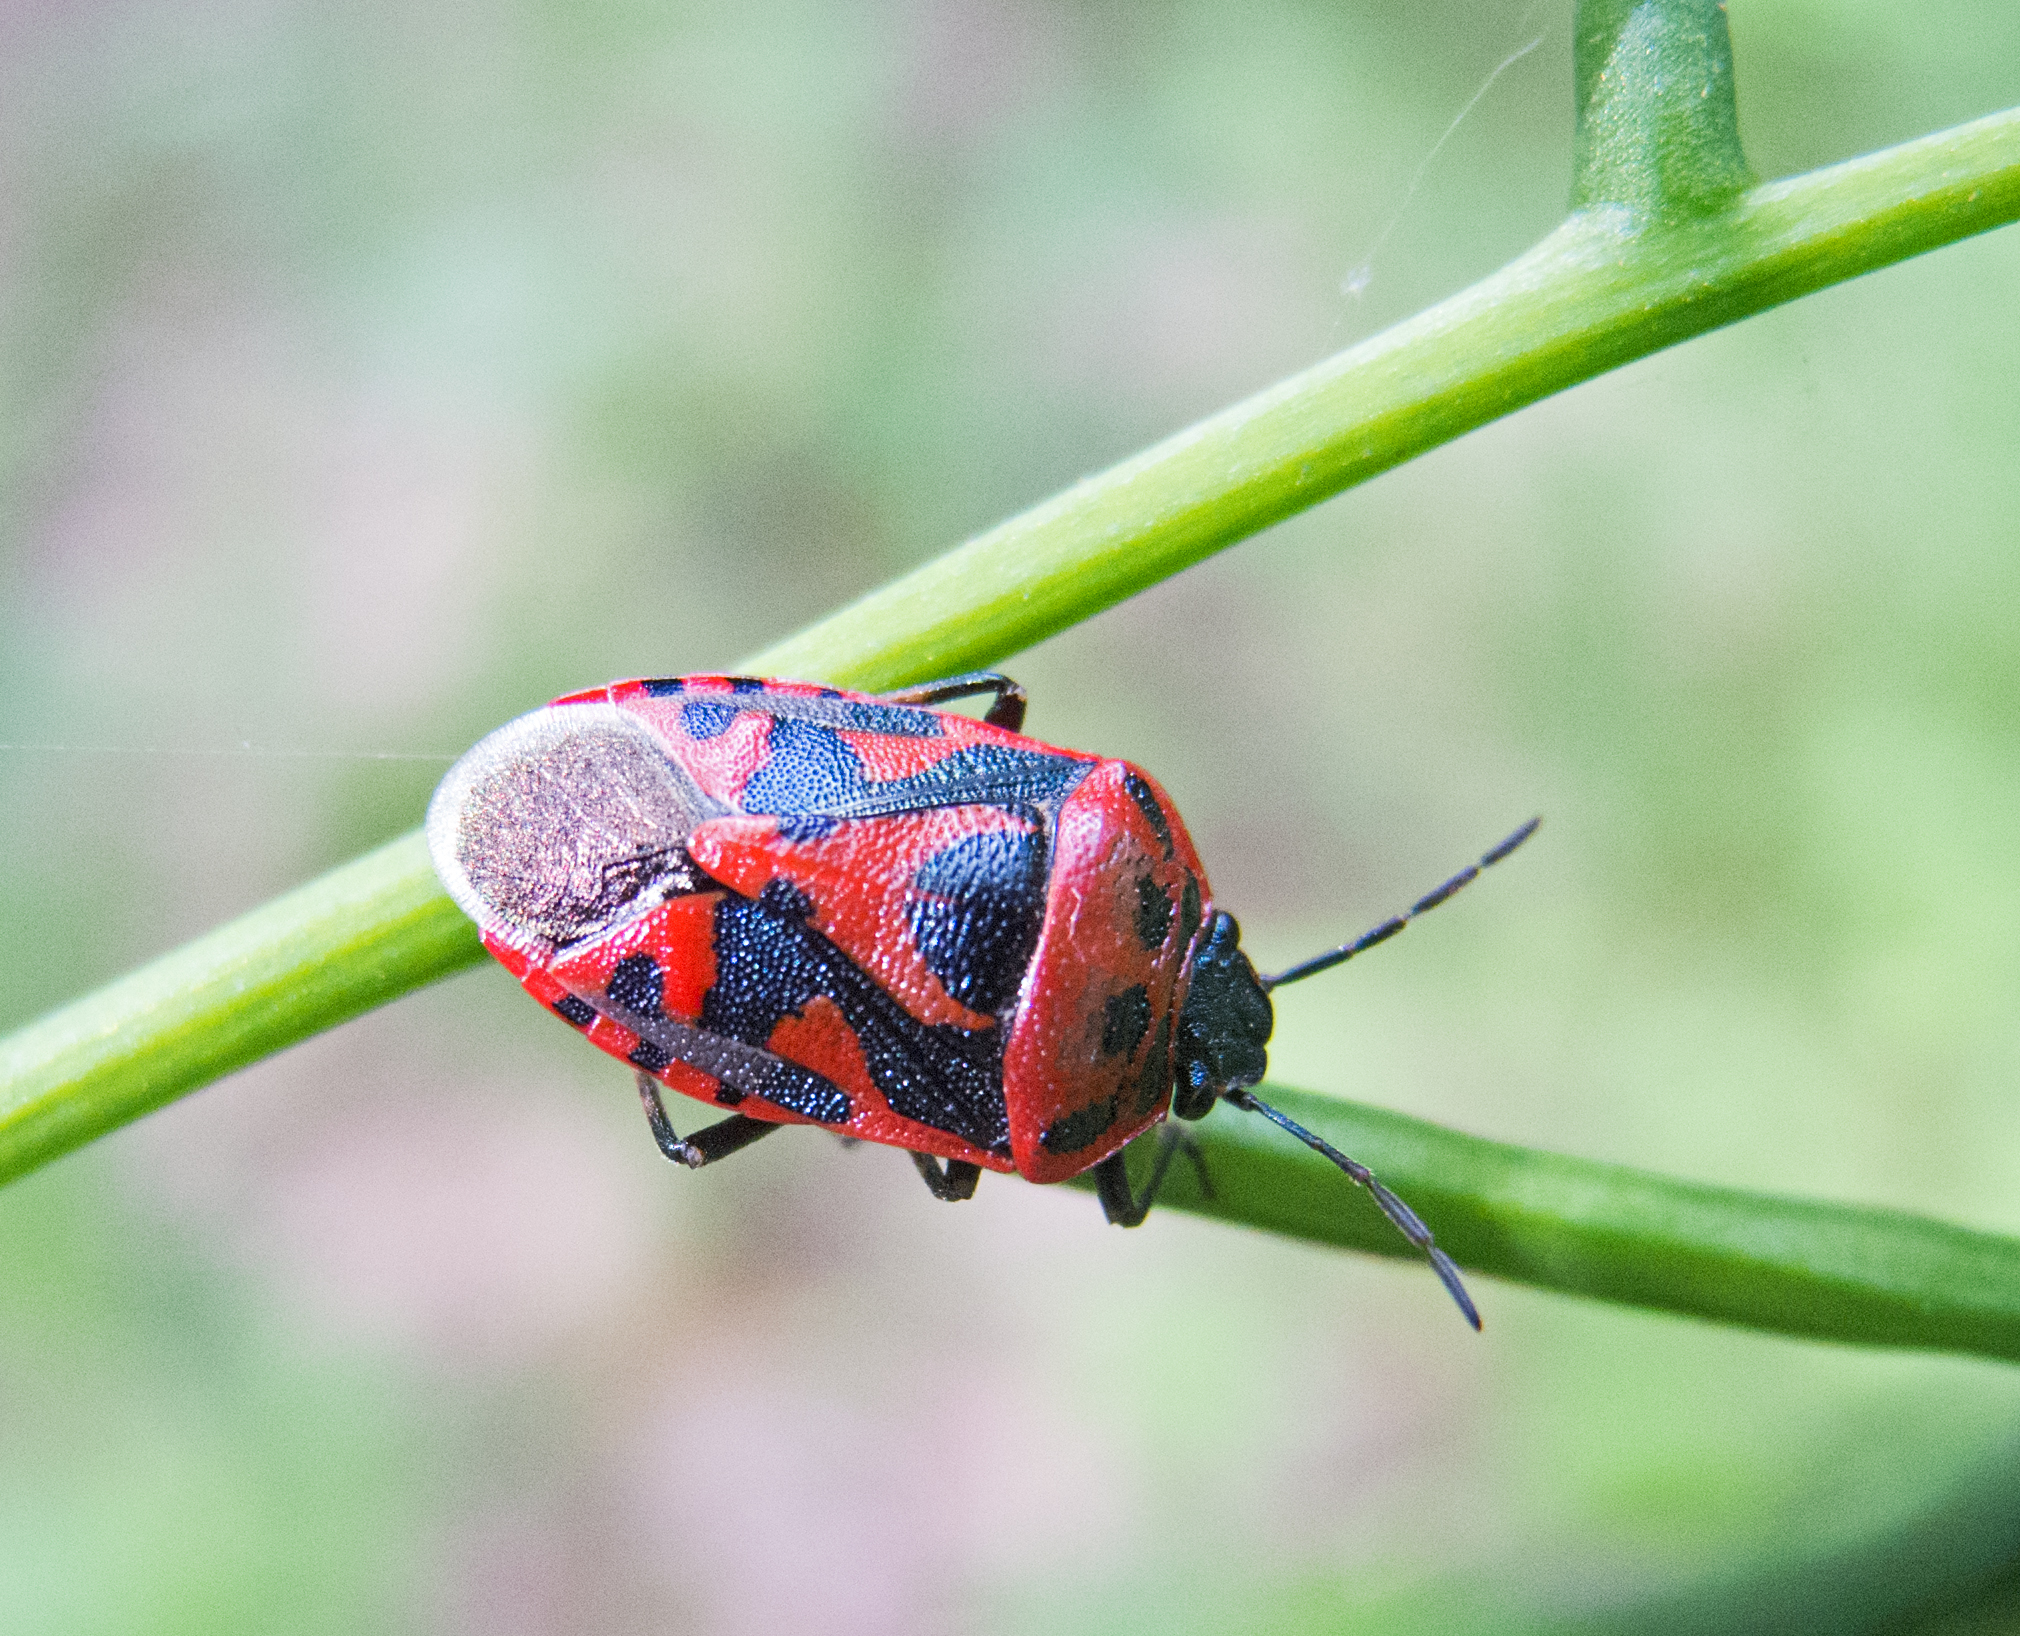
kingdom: Animalia
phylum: Arthropoda
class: Insecta
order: Hemiptera
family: Pentatomidae
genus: Eurydema
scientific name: Eurydema ornata
